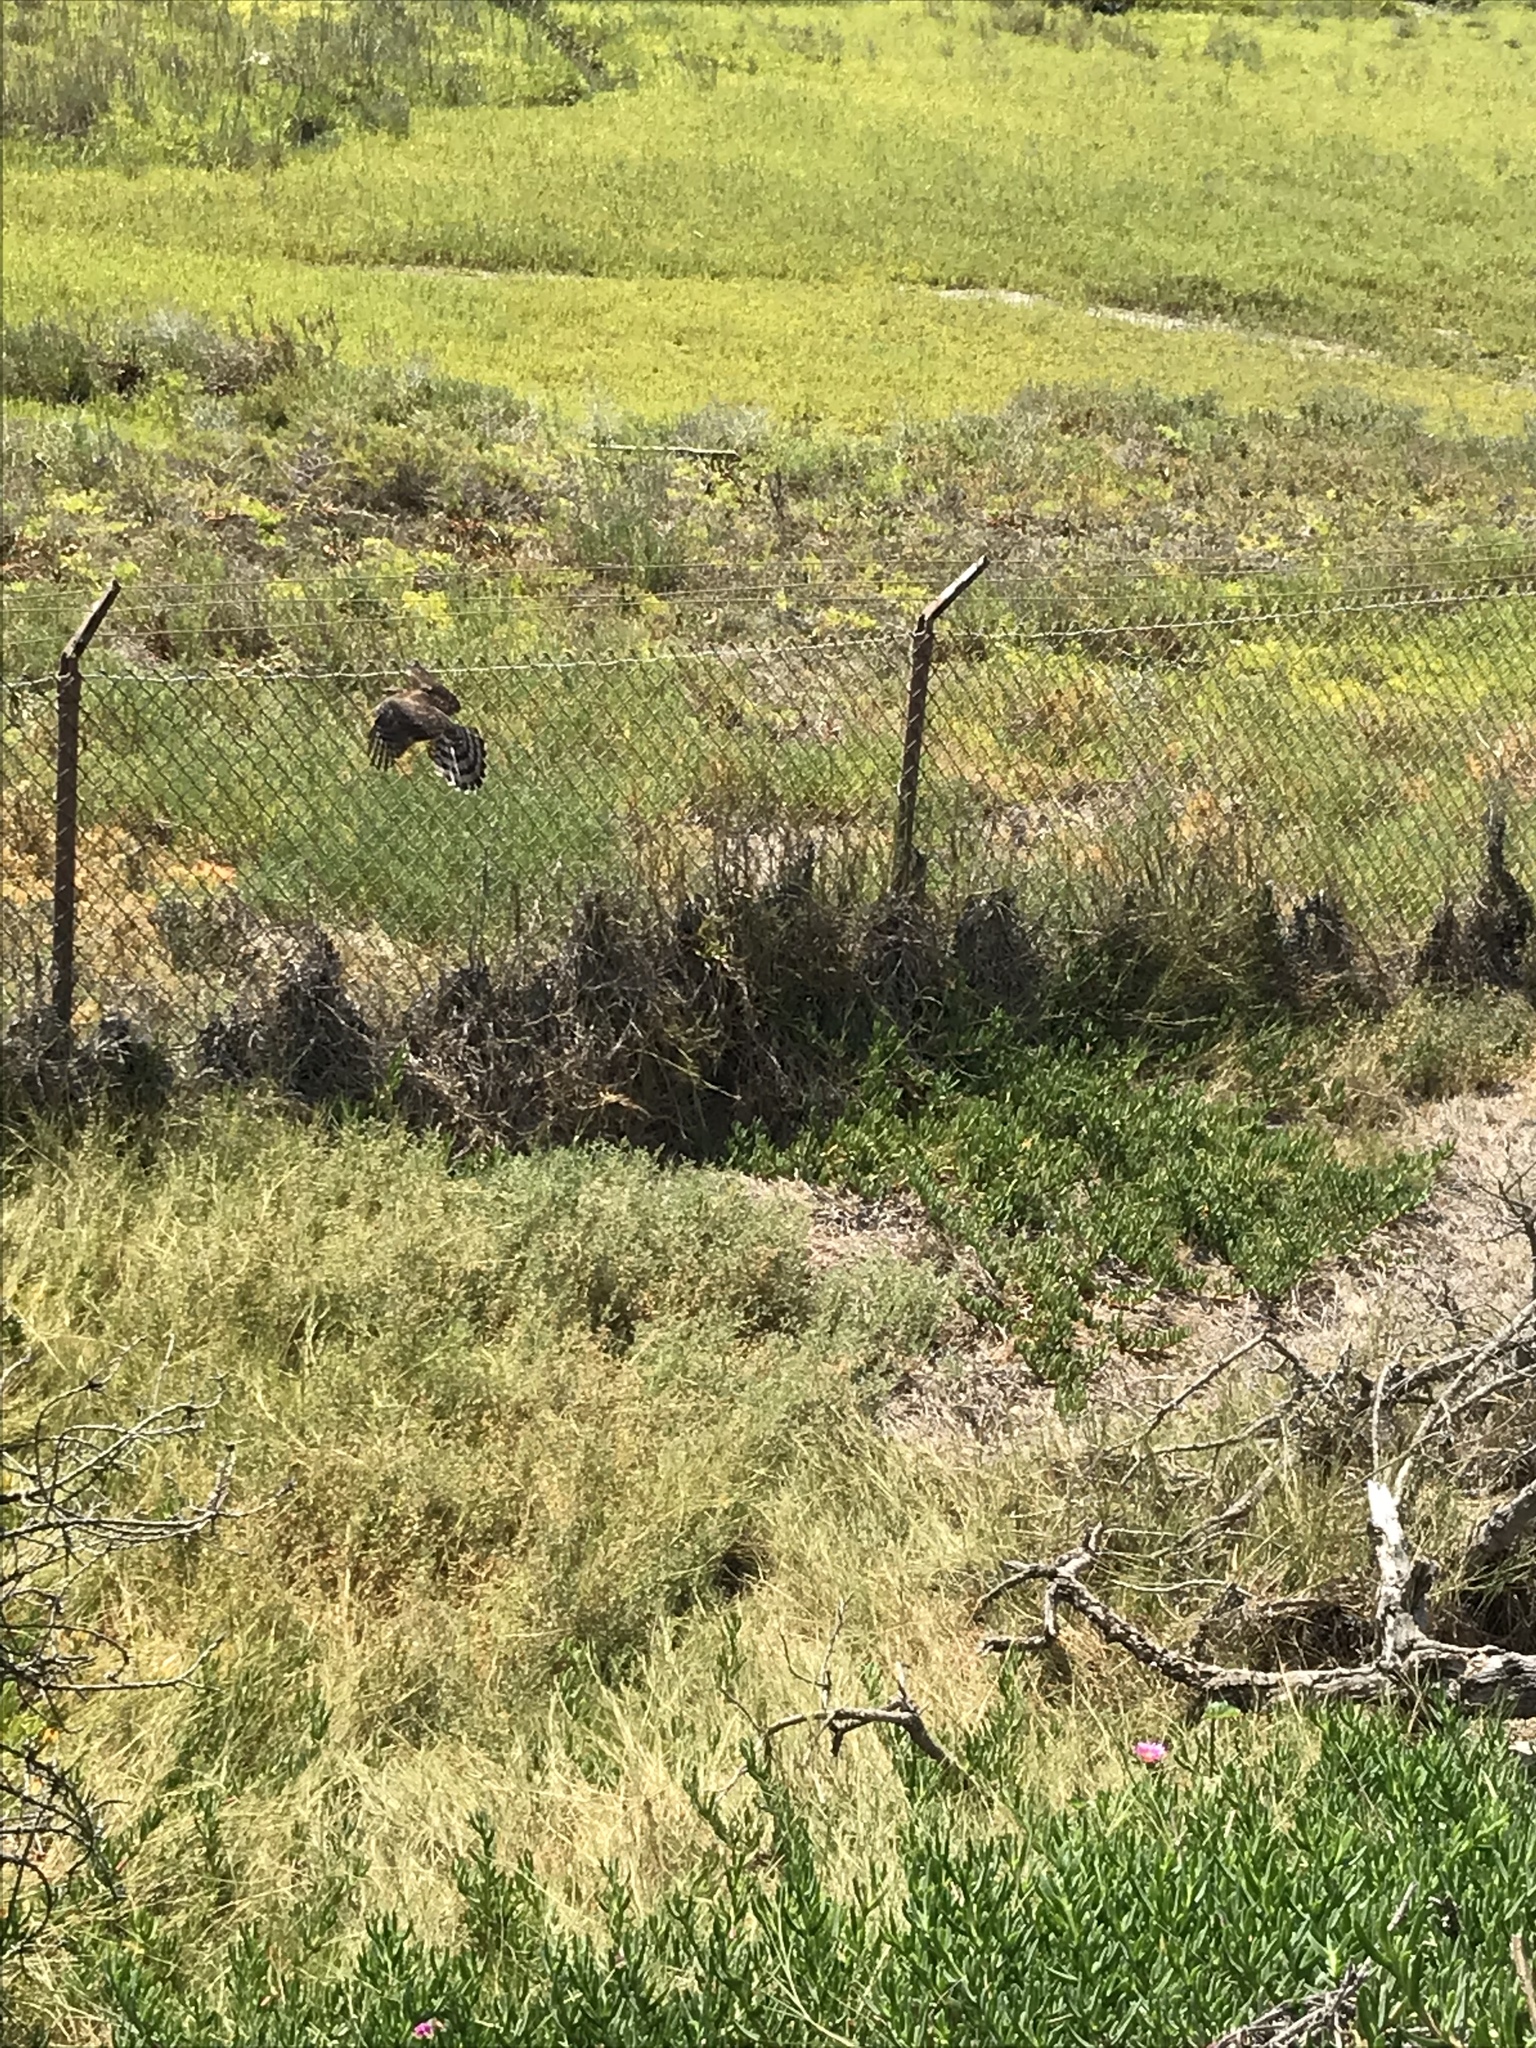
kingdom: Animalia
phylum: Chordata
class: Aves
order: Accipitriformes
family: Accipitridae
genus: Accipiter
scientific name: Accipiter cooperii
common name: Cooper's hawk
